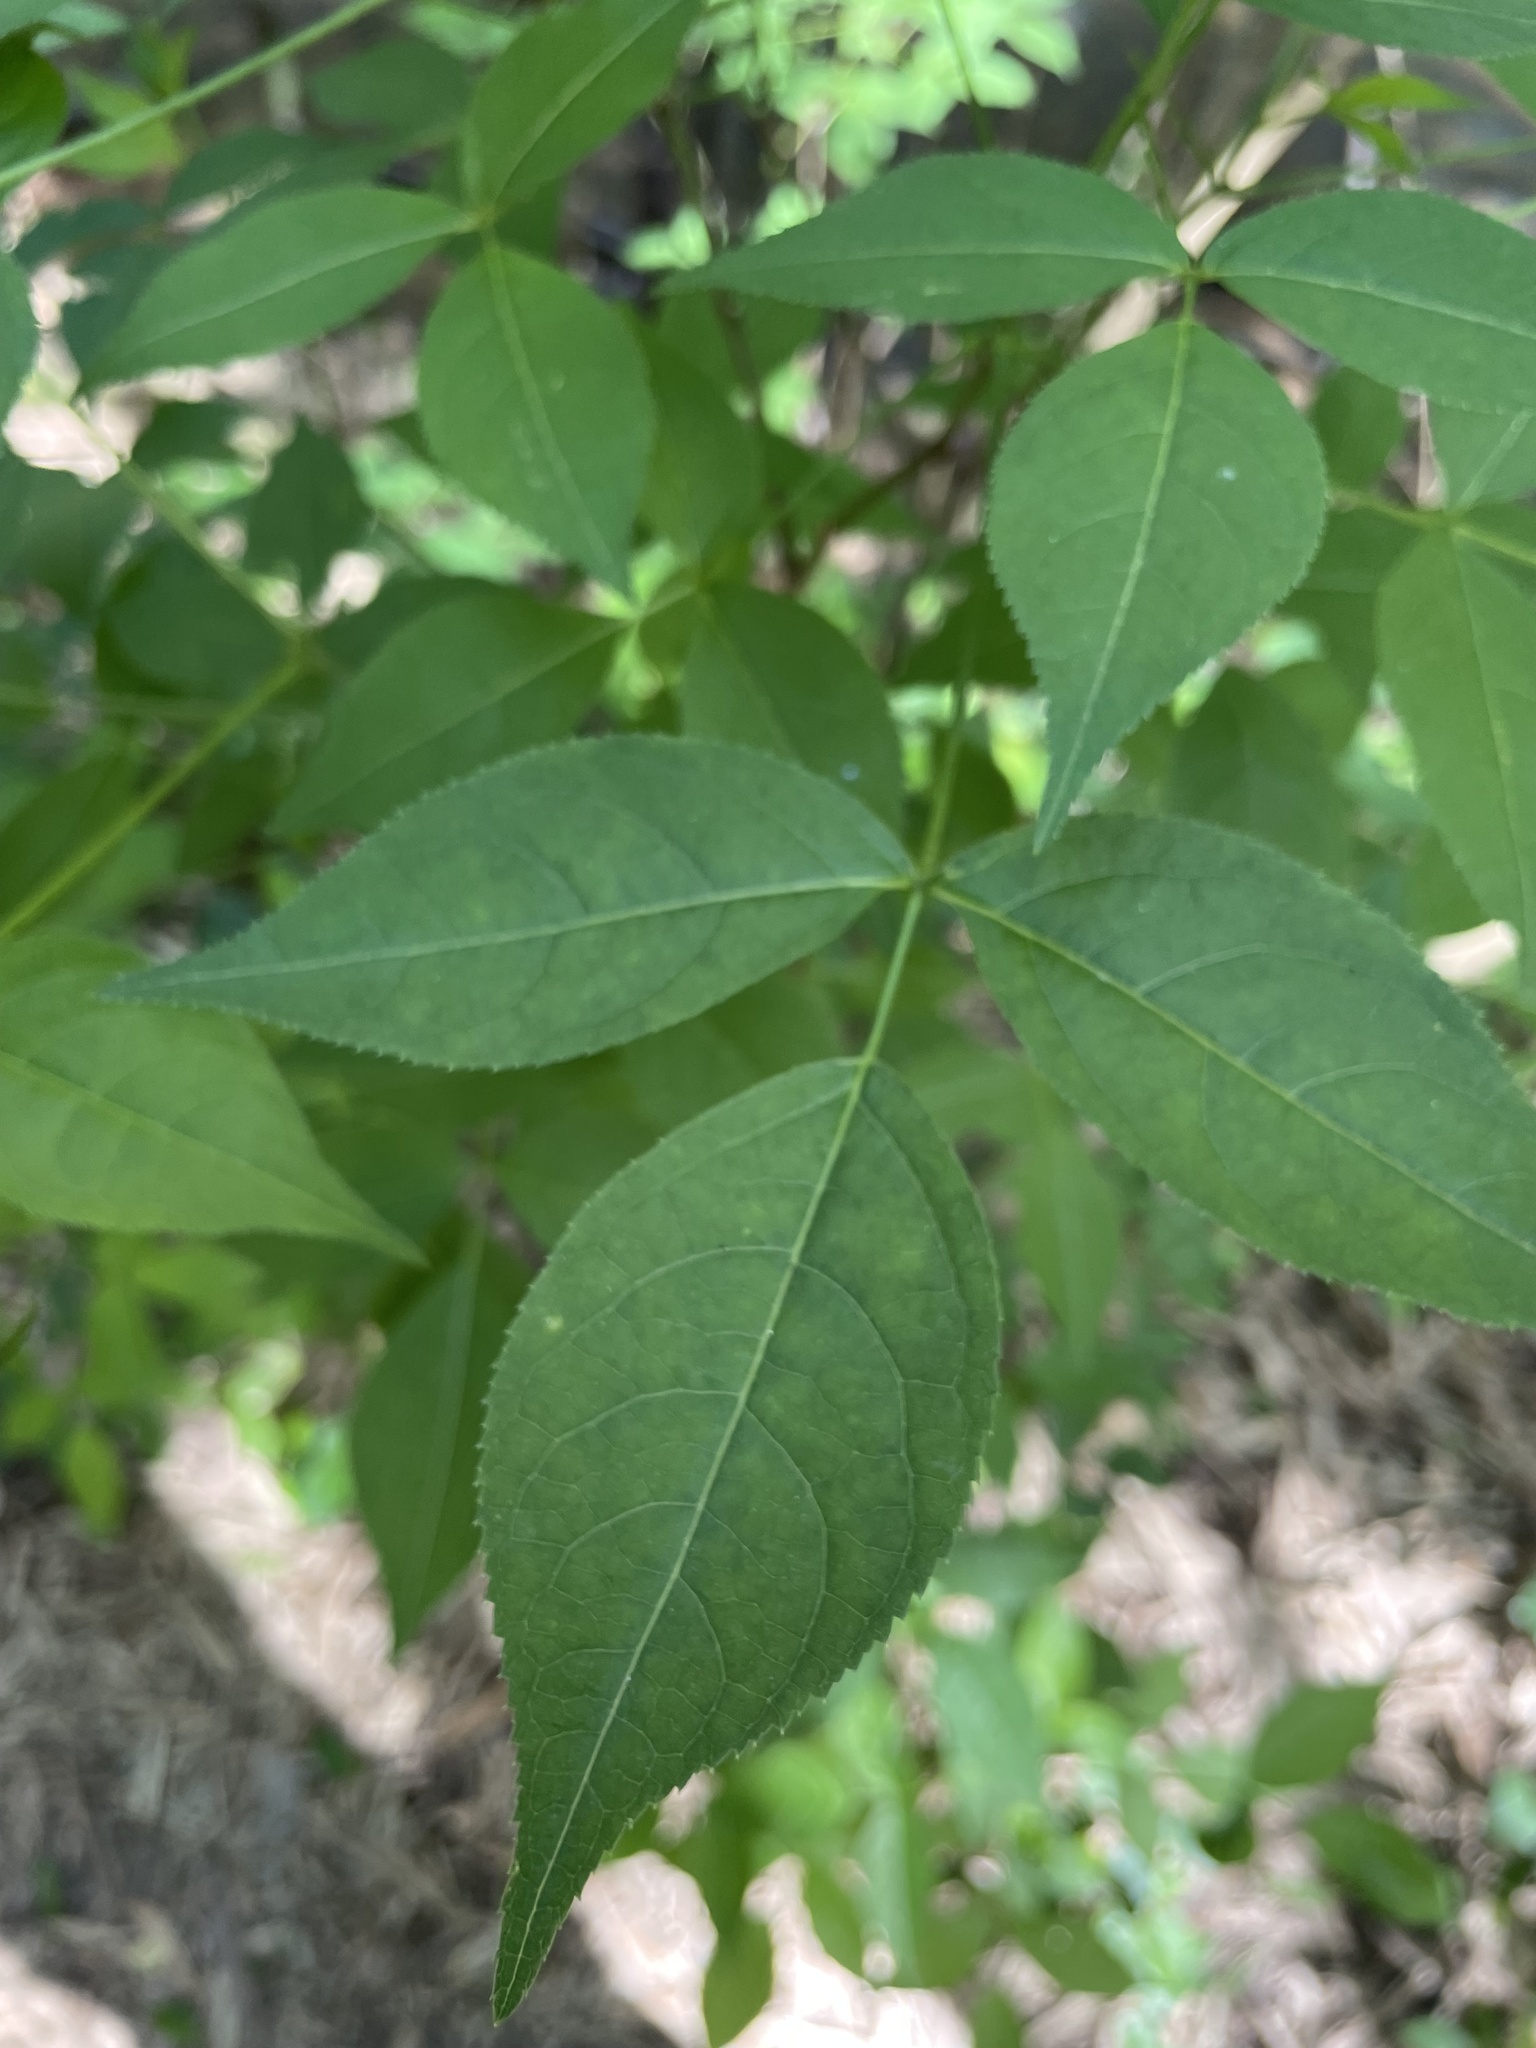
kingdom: Plantae
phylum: Tracheophyta
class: Magnoliopsida
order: Crossosomatales
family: Staphyleaceae
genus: Staphylea
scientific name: Staphylea trifolia
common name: American bladdernut
